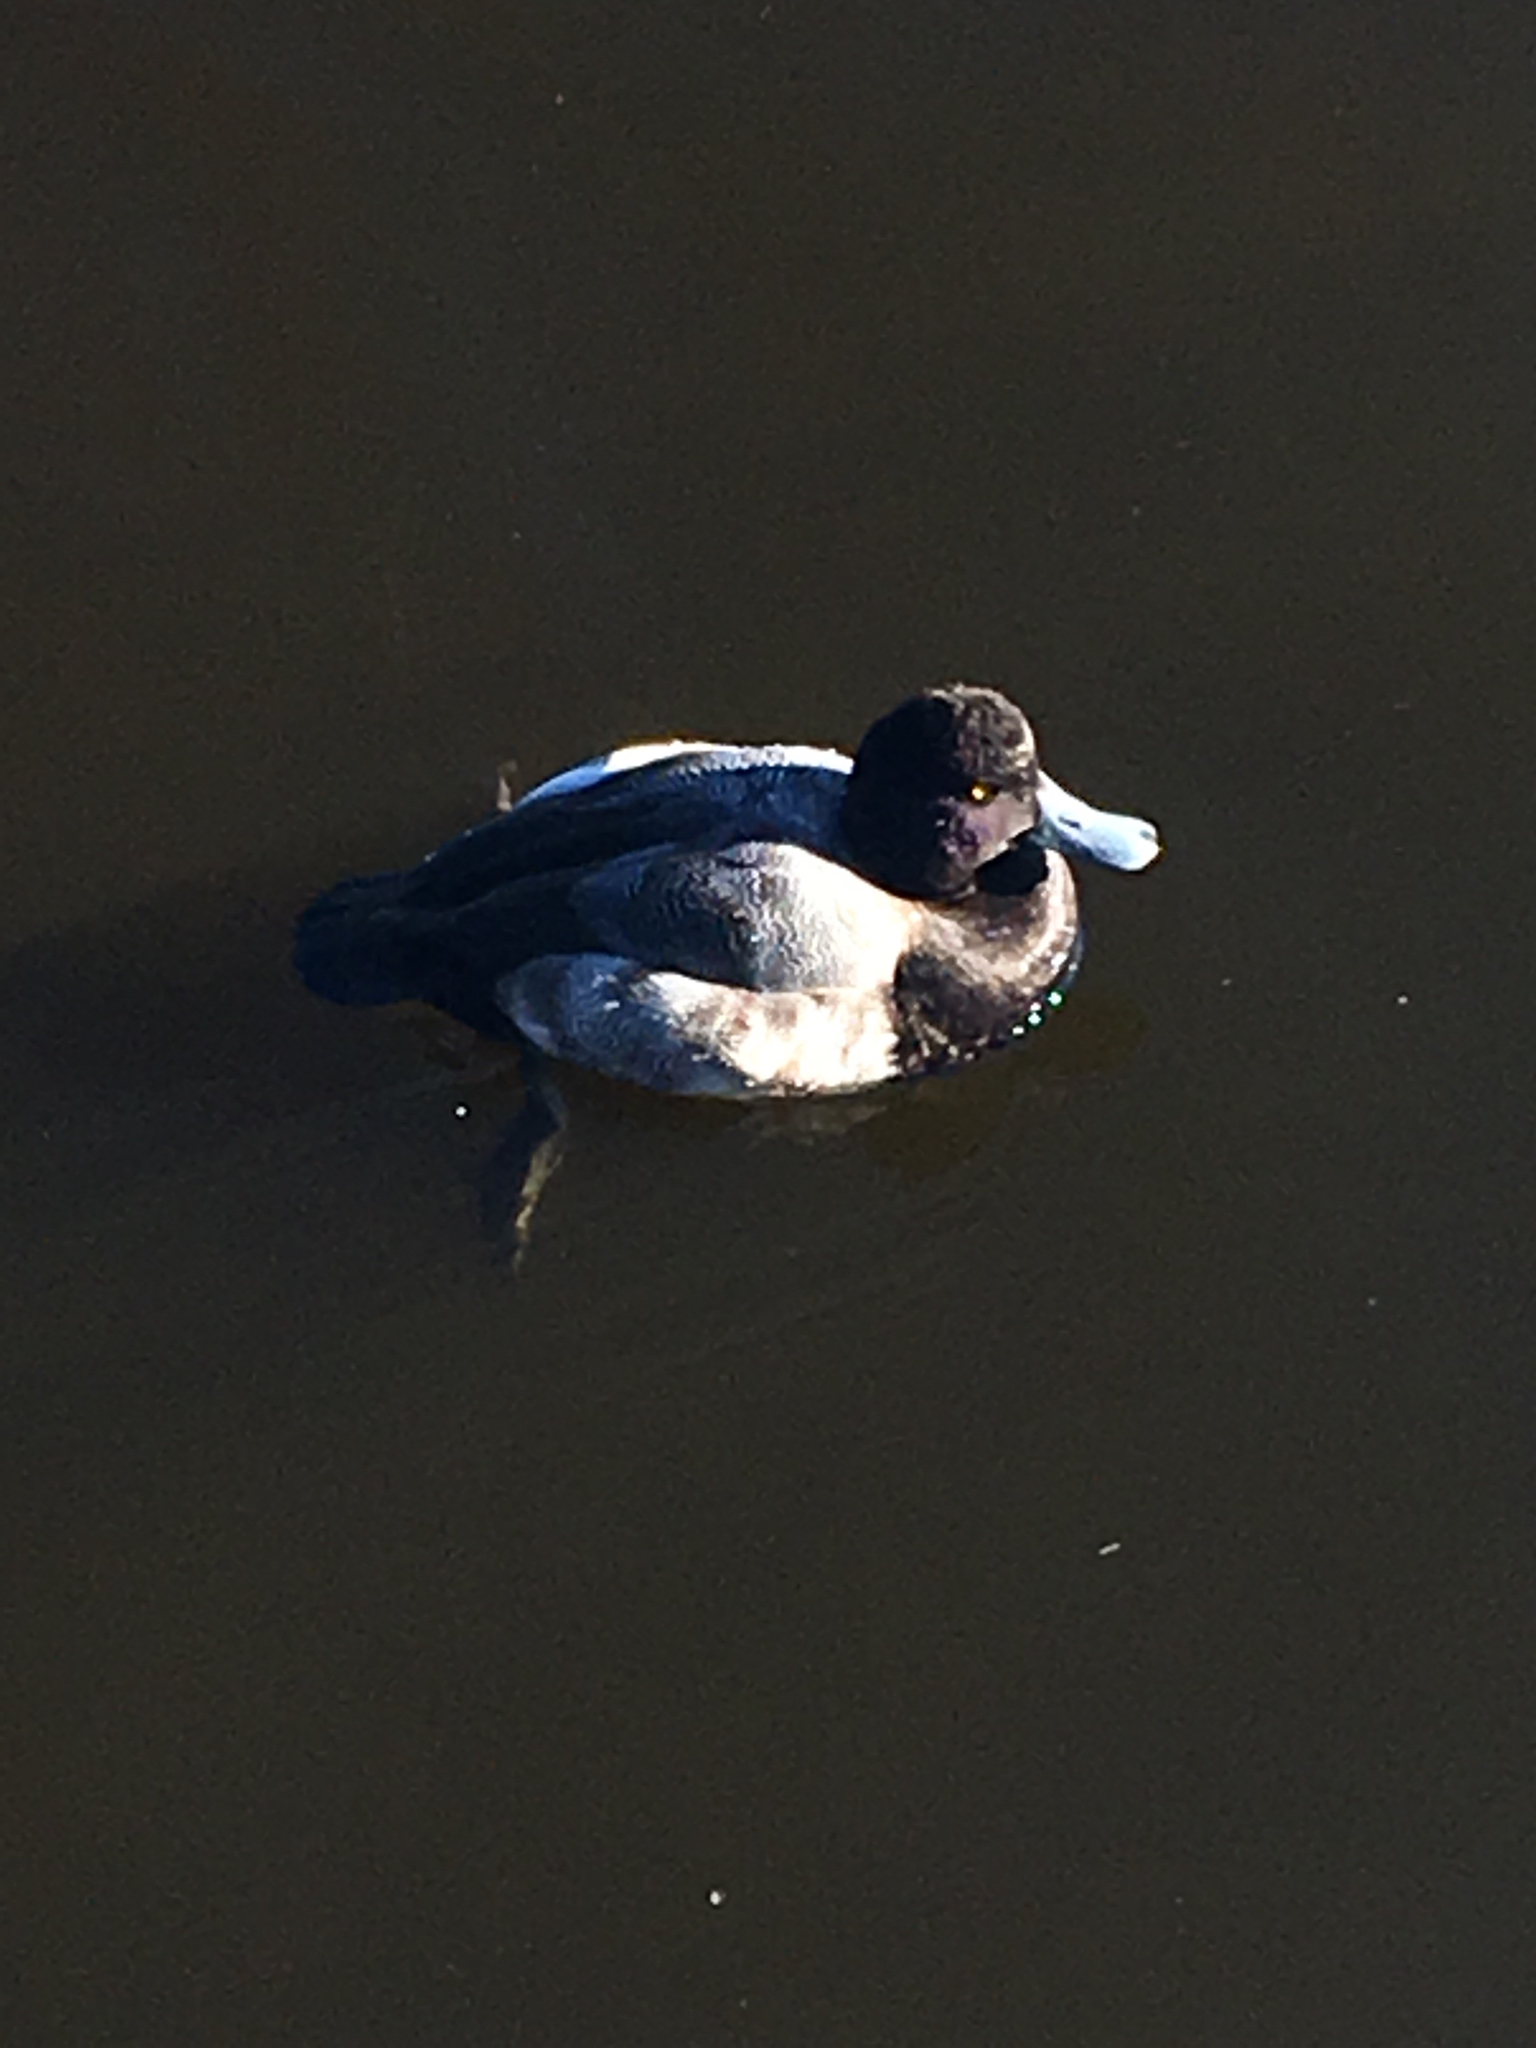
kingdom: Animalia
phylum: Chordata
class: Aves
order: Anseriformes
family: Anatidae
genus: Aythya
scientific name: Aythya affinis
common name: Lesser scaup
